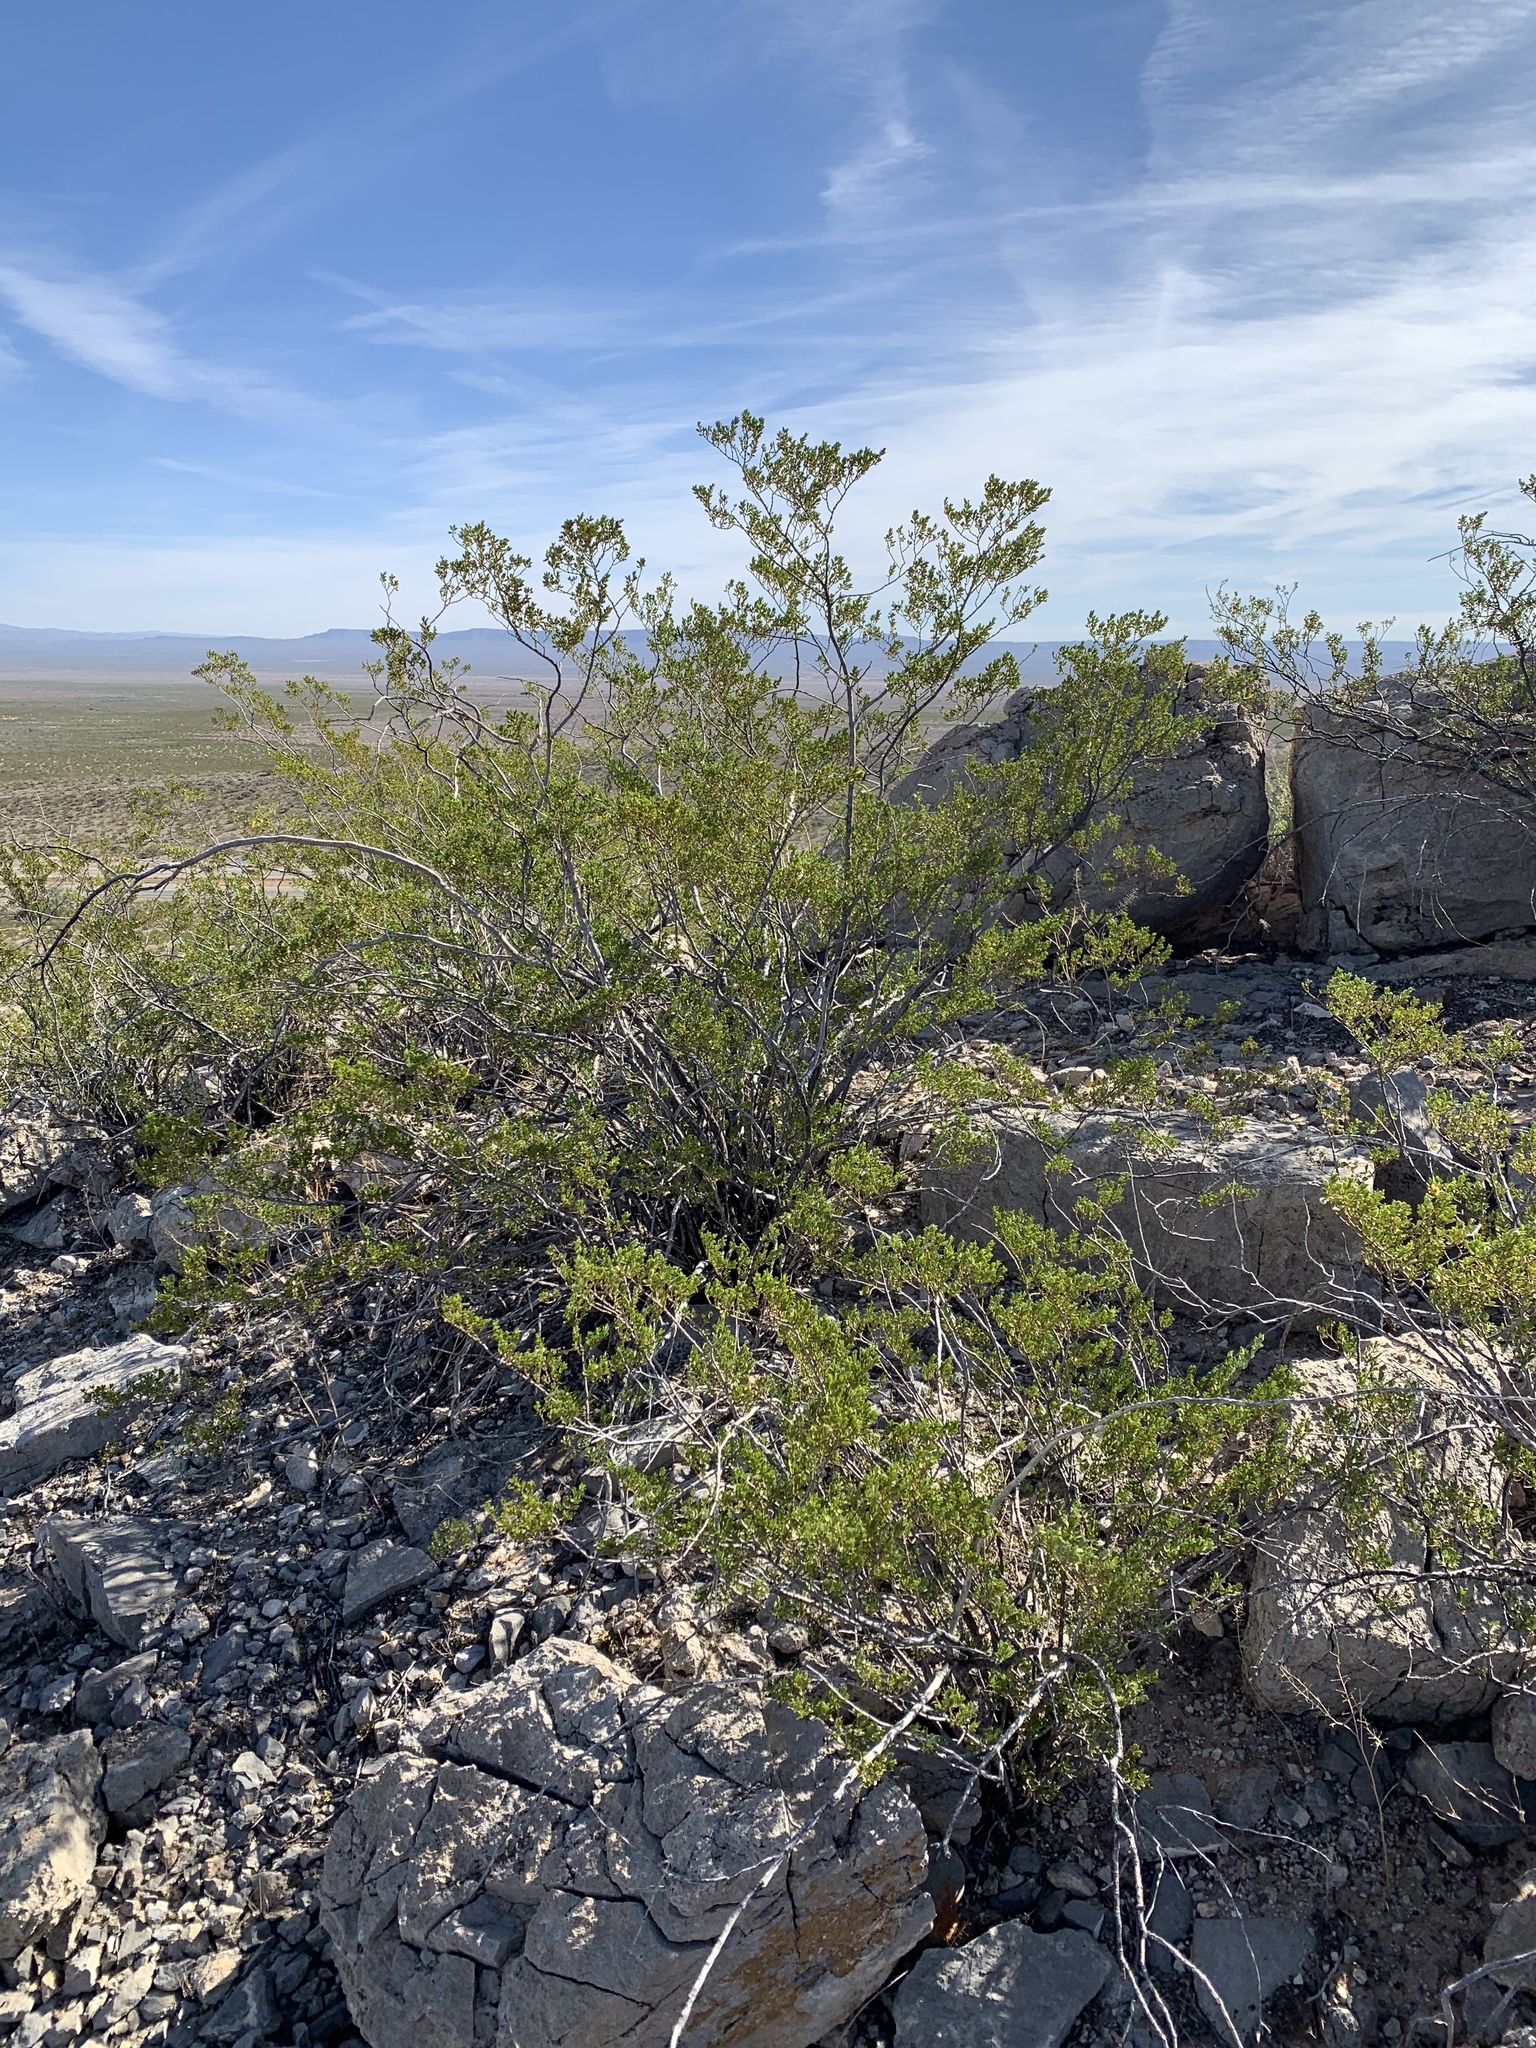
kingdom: Plantae
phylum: Tracheophyta
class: Magnoliopsida
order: Zygophyllales
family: Zygophyllaceae
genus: Larrea
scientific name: Larrea tridentata
